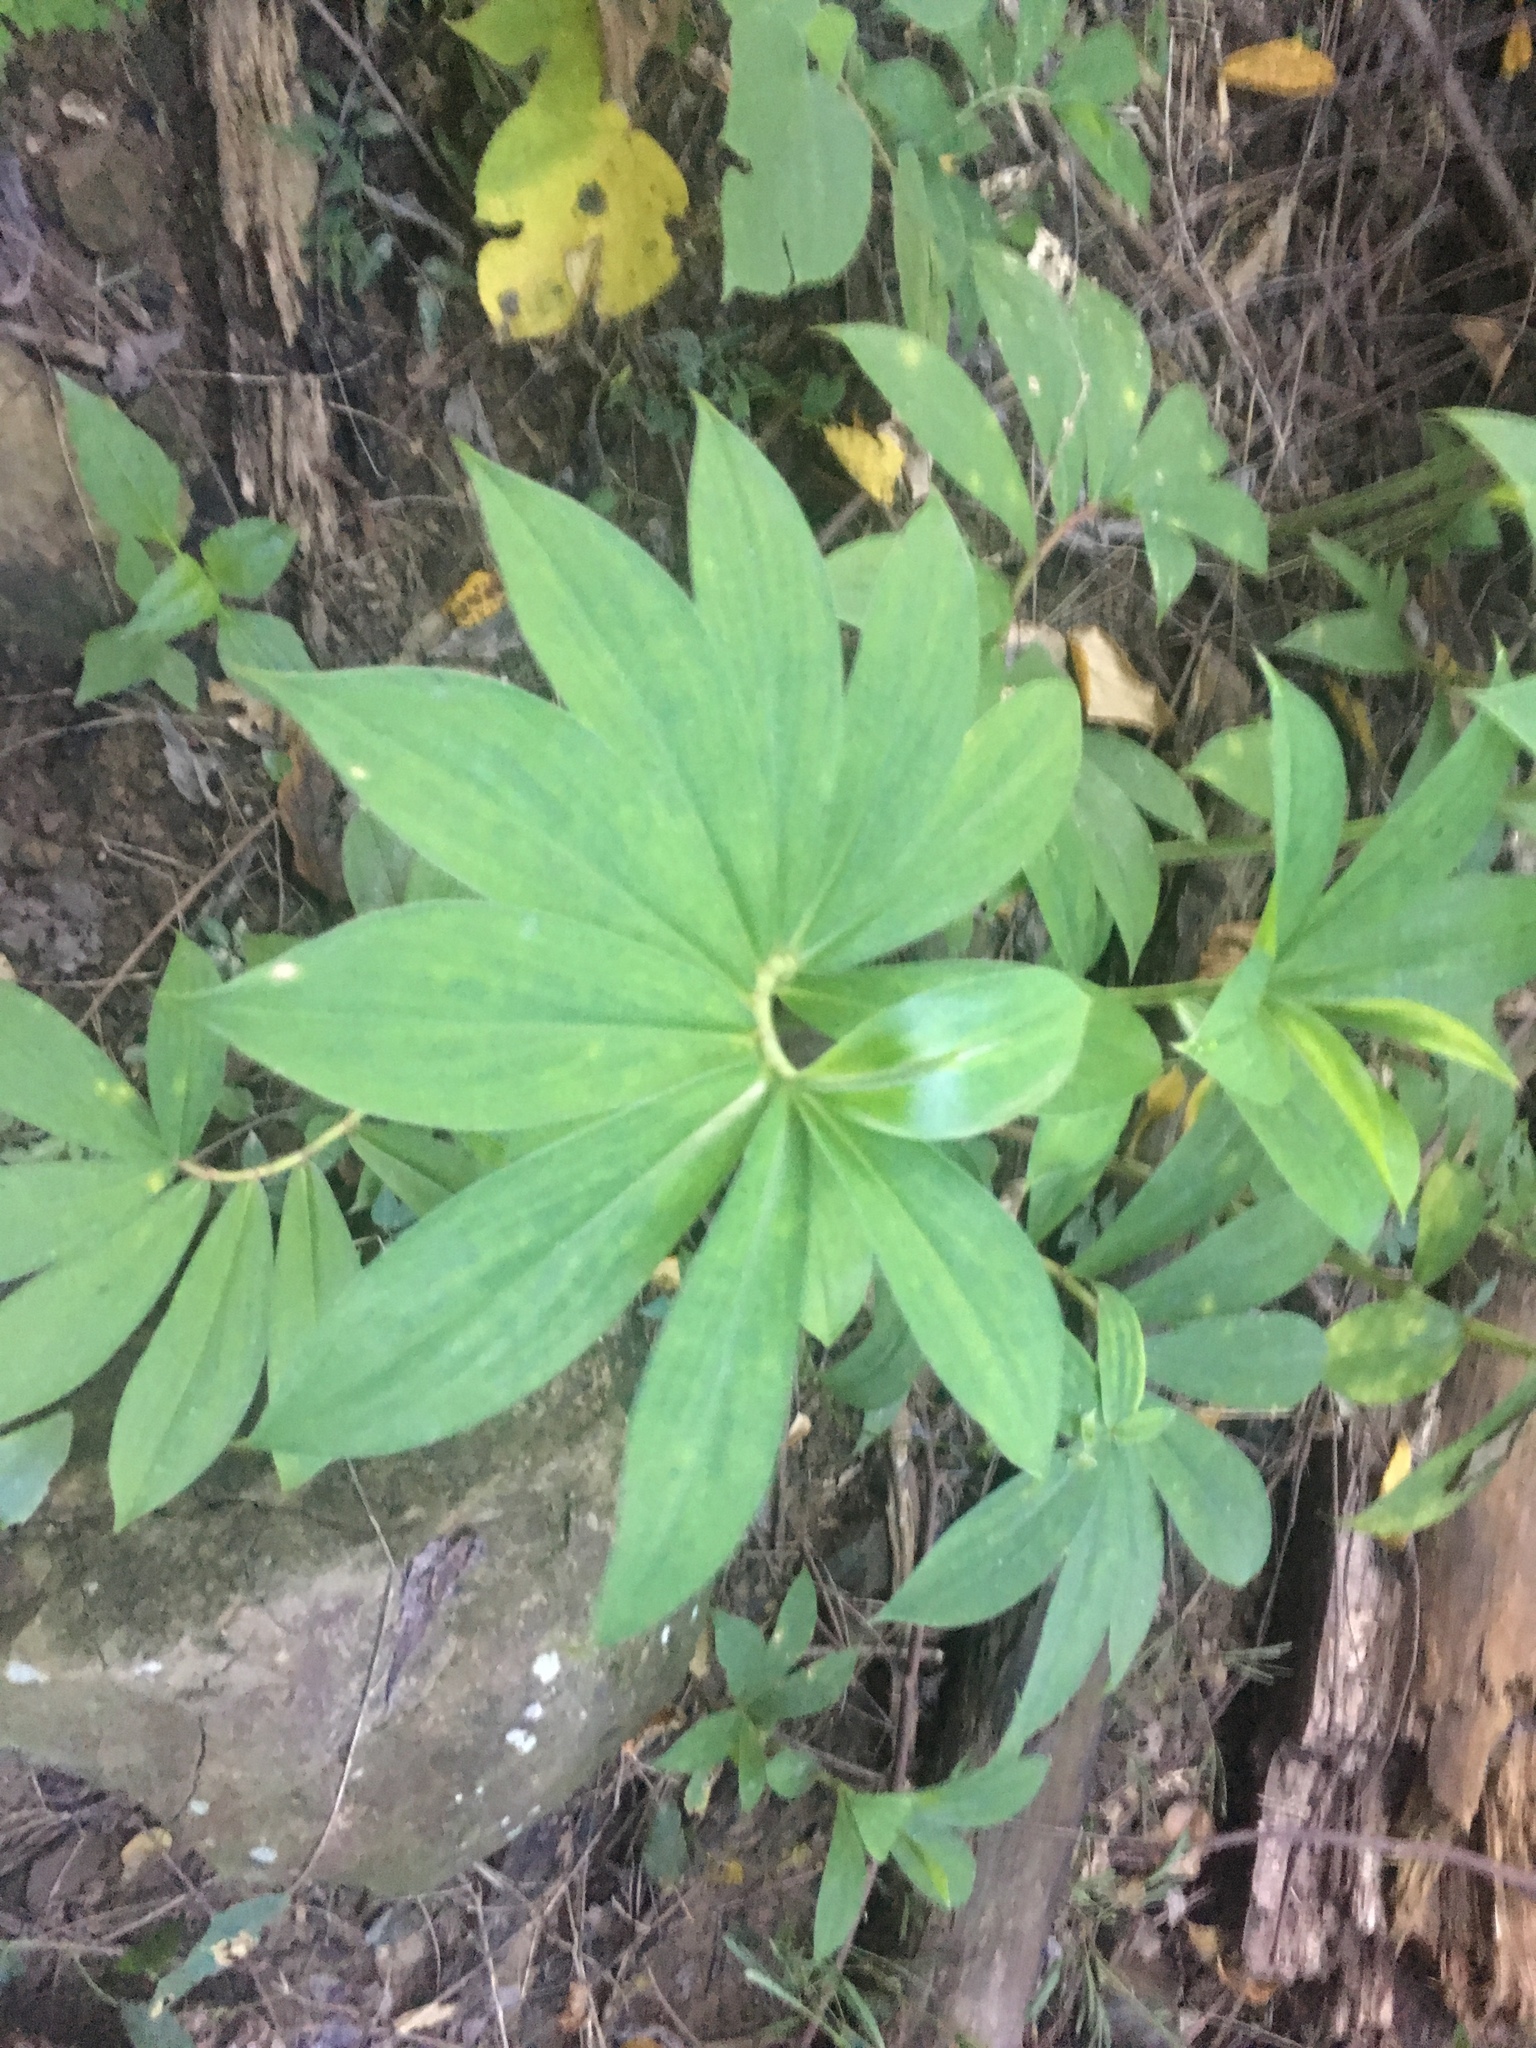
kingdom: Plantae
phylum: Tracheophyta
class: Liliopsida
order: Zingiberales
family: Costaceae
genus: Hellenia
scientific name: Hellenia speciosa
